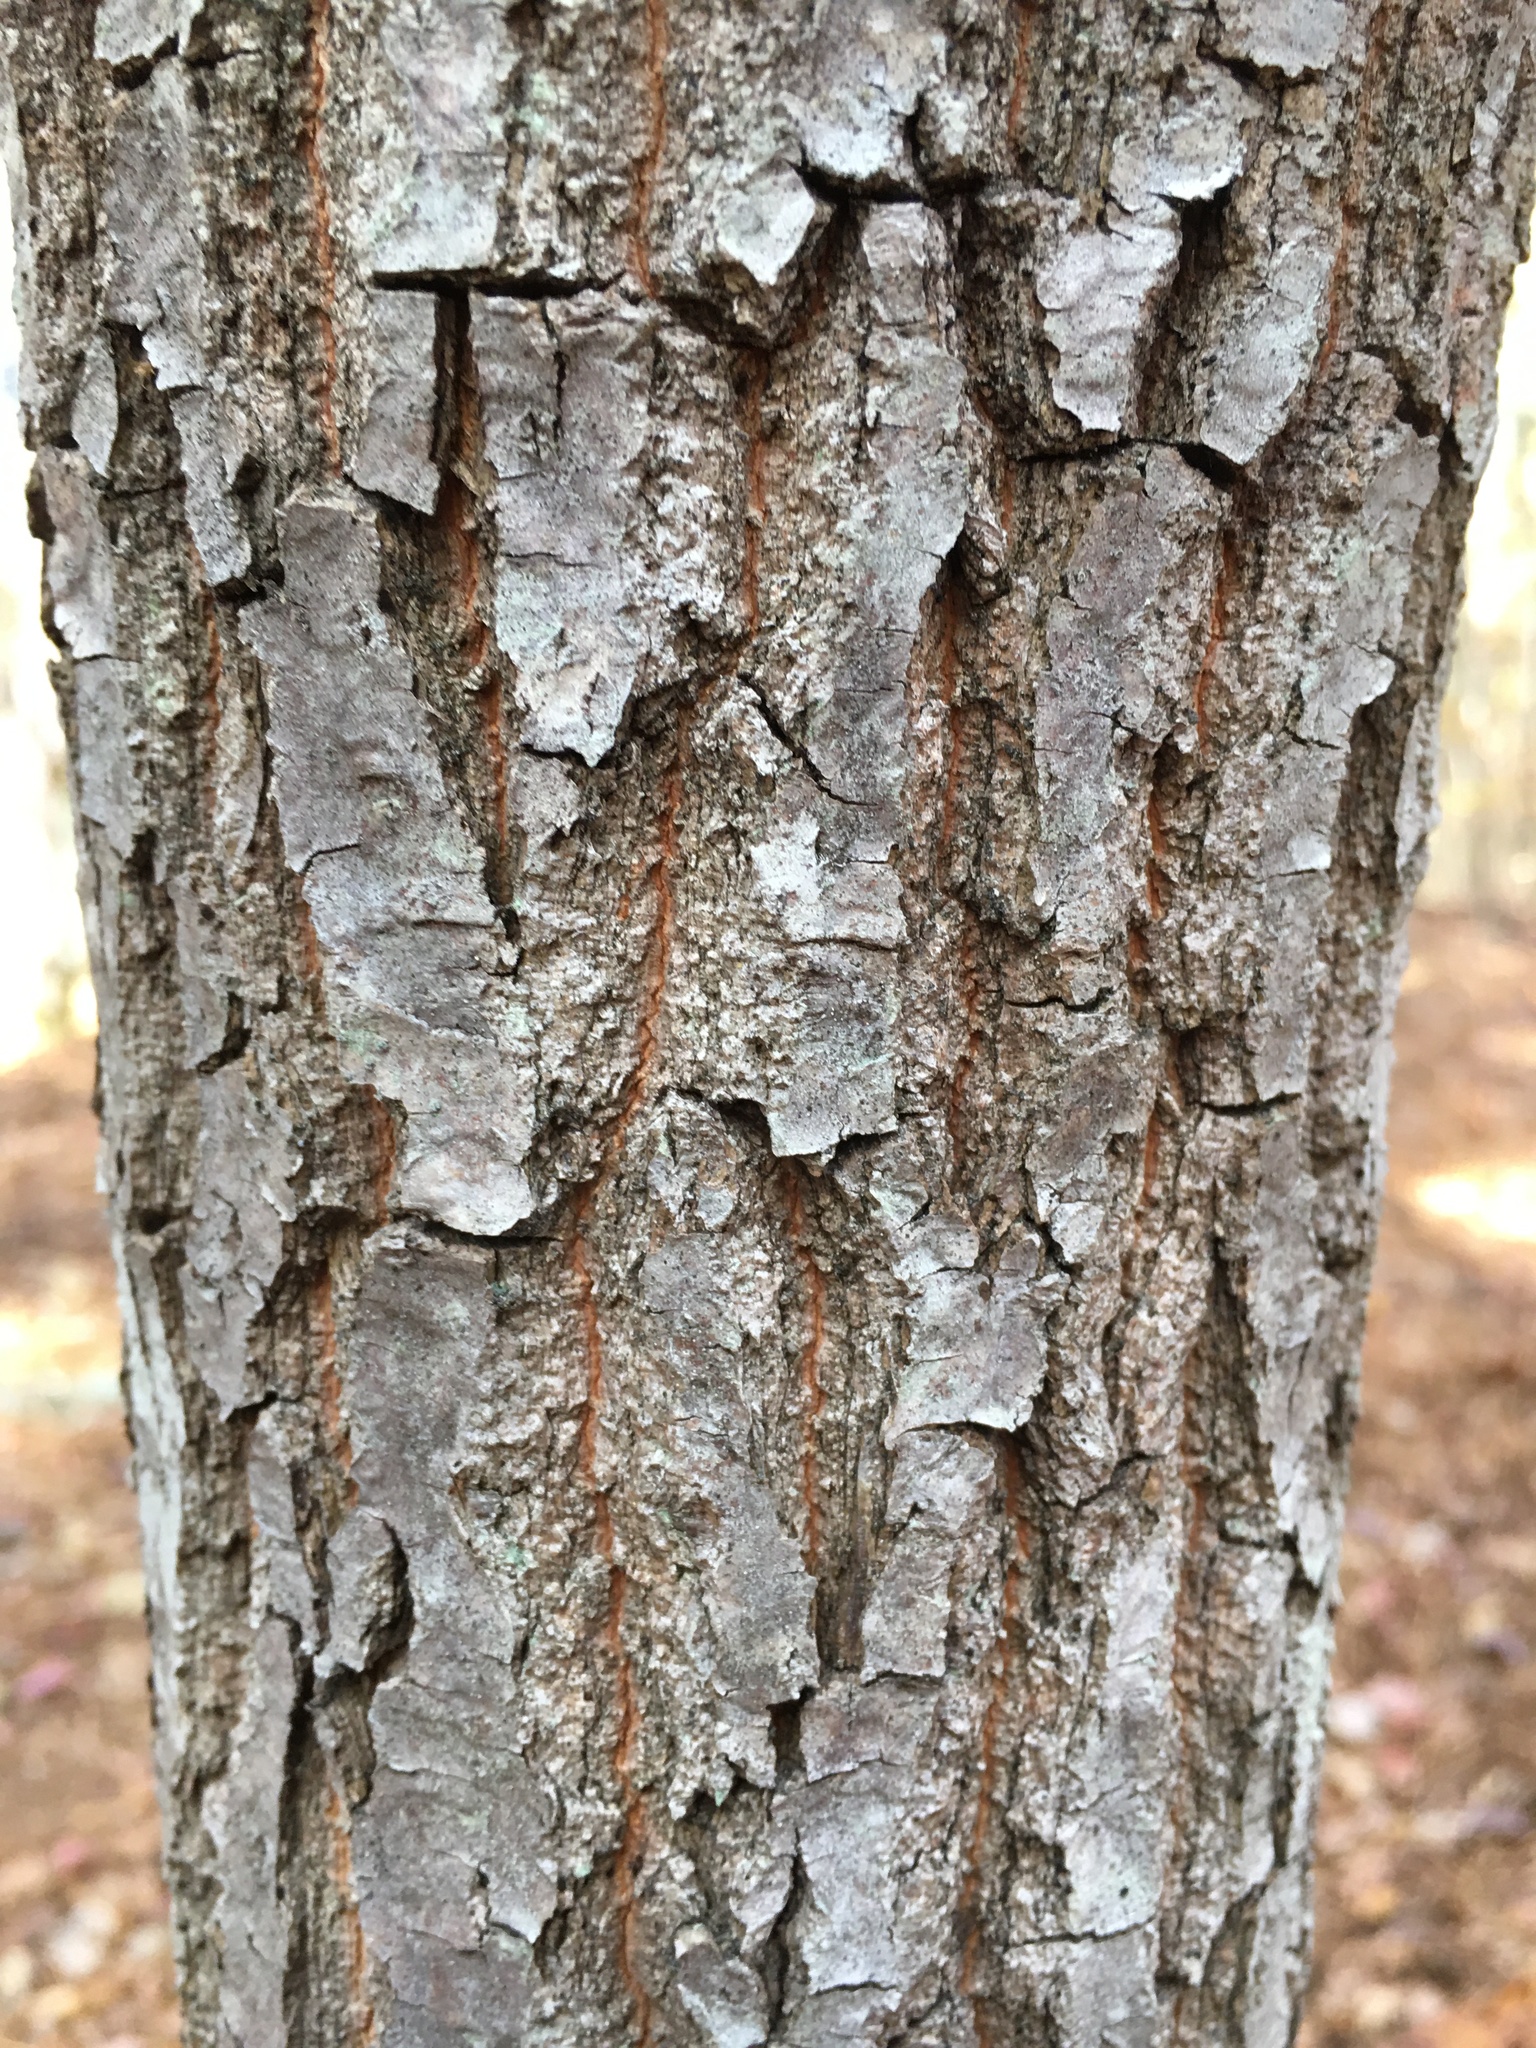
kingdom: Plantae
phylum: Tracheophyta
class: Magnoliopsida
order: Ericales
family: Ericaceae
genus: Oxydendrum
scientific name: Oxydendrum arboreum
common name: Sourwood
